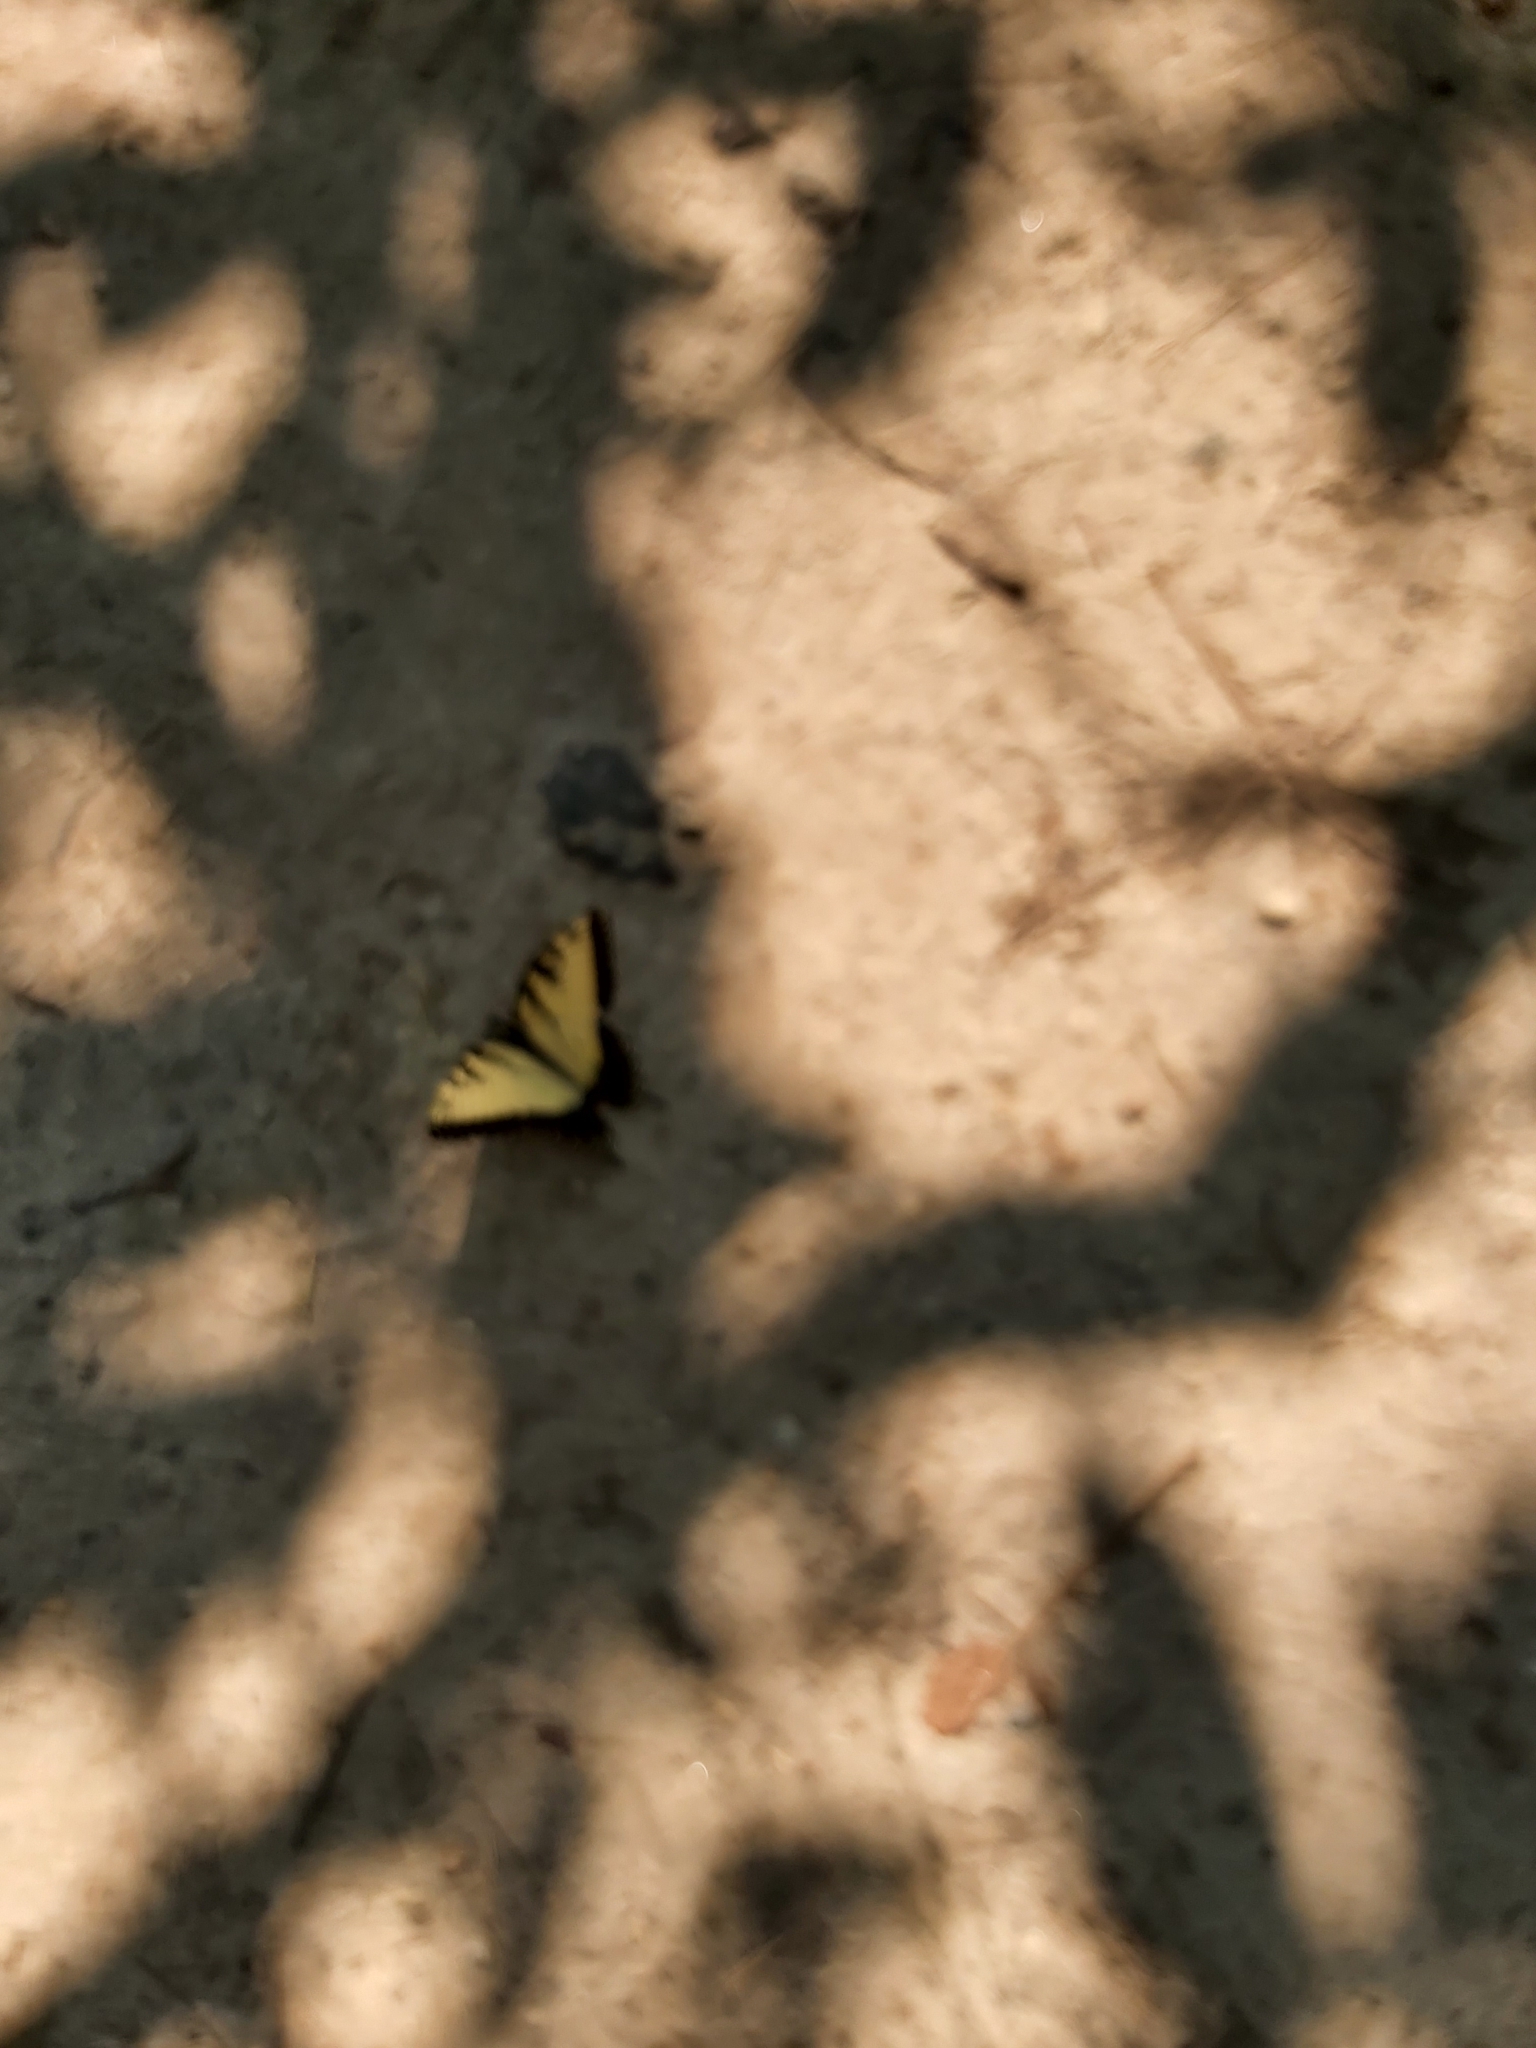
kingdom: Animalia
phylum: Arthropoda
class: Insecta
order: Lepidoptera
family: Papilionidae
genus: Papilio
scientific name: Papilio glaucus
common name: Tiger swallowtail
